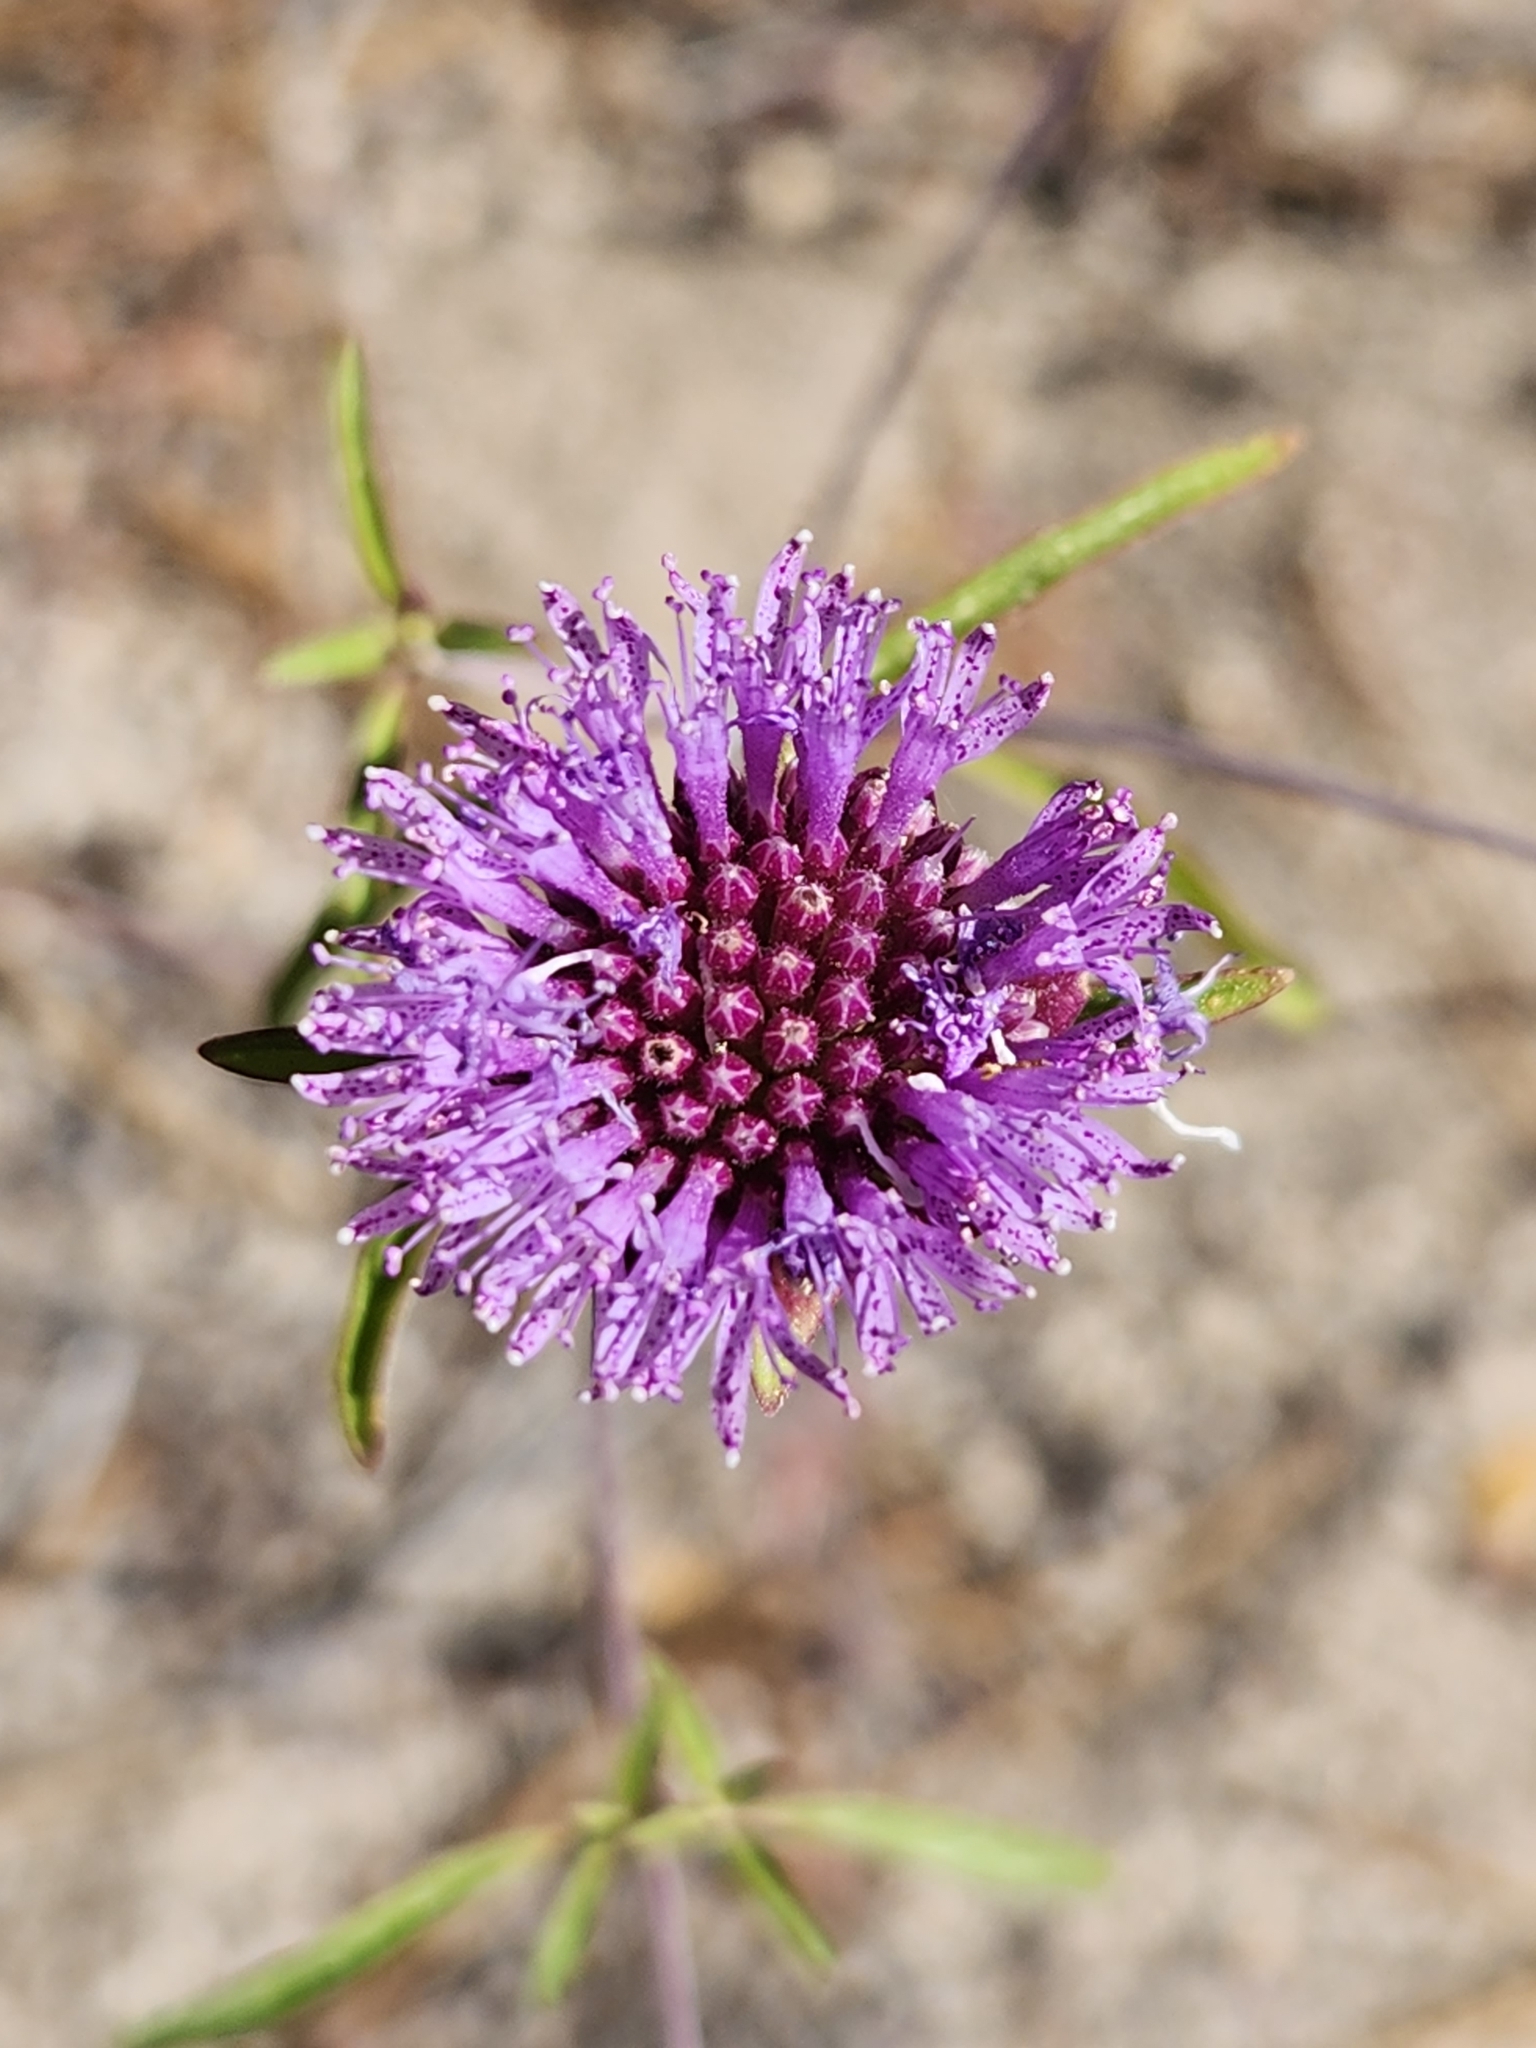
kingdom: Plantae
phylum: Tracheophyta
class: Magnoliopsida
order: Lamiales
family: Lamiaceae
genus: Monardella
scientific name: Monardella breweri
